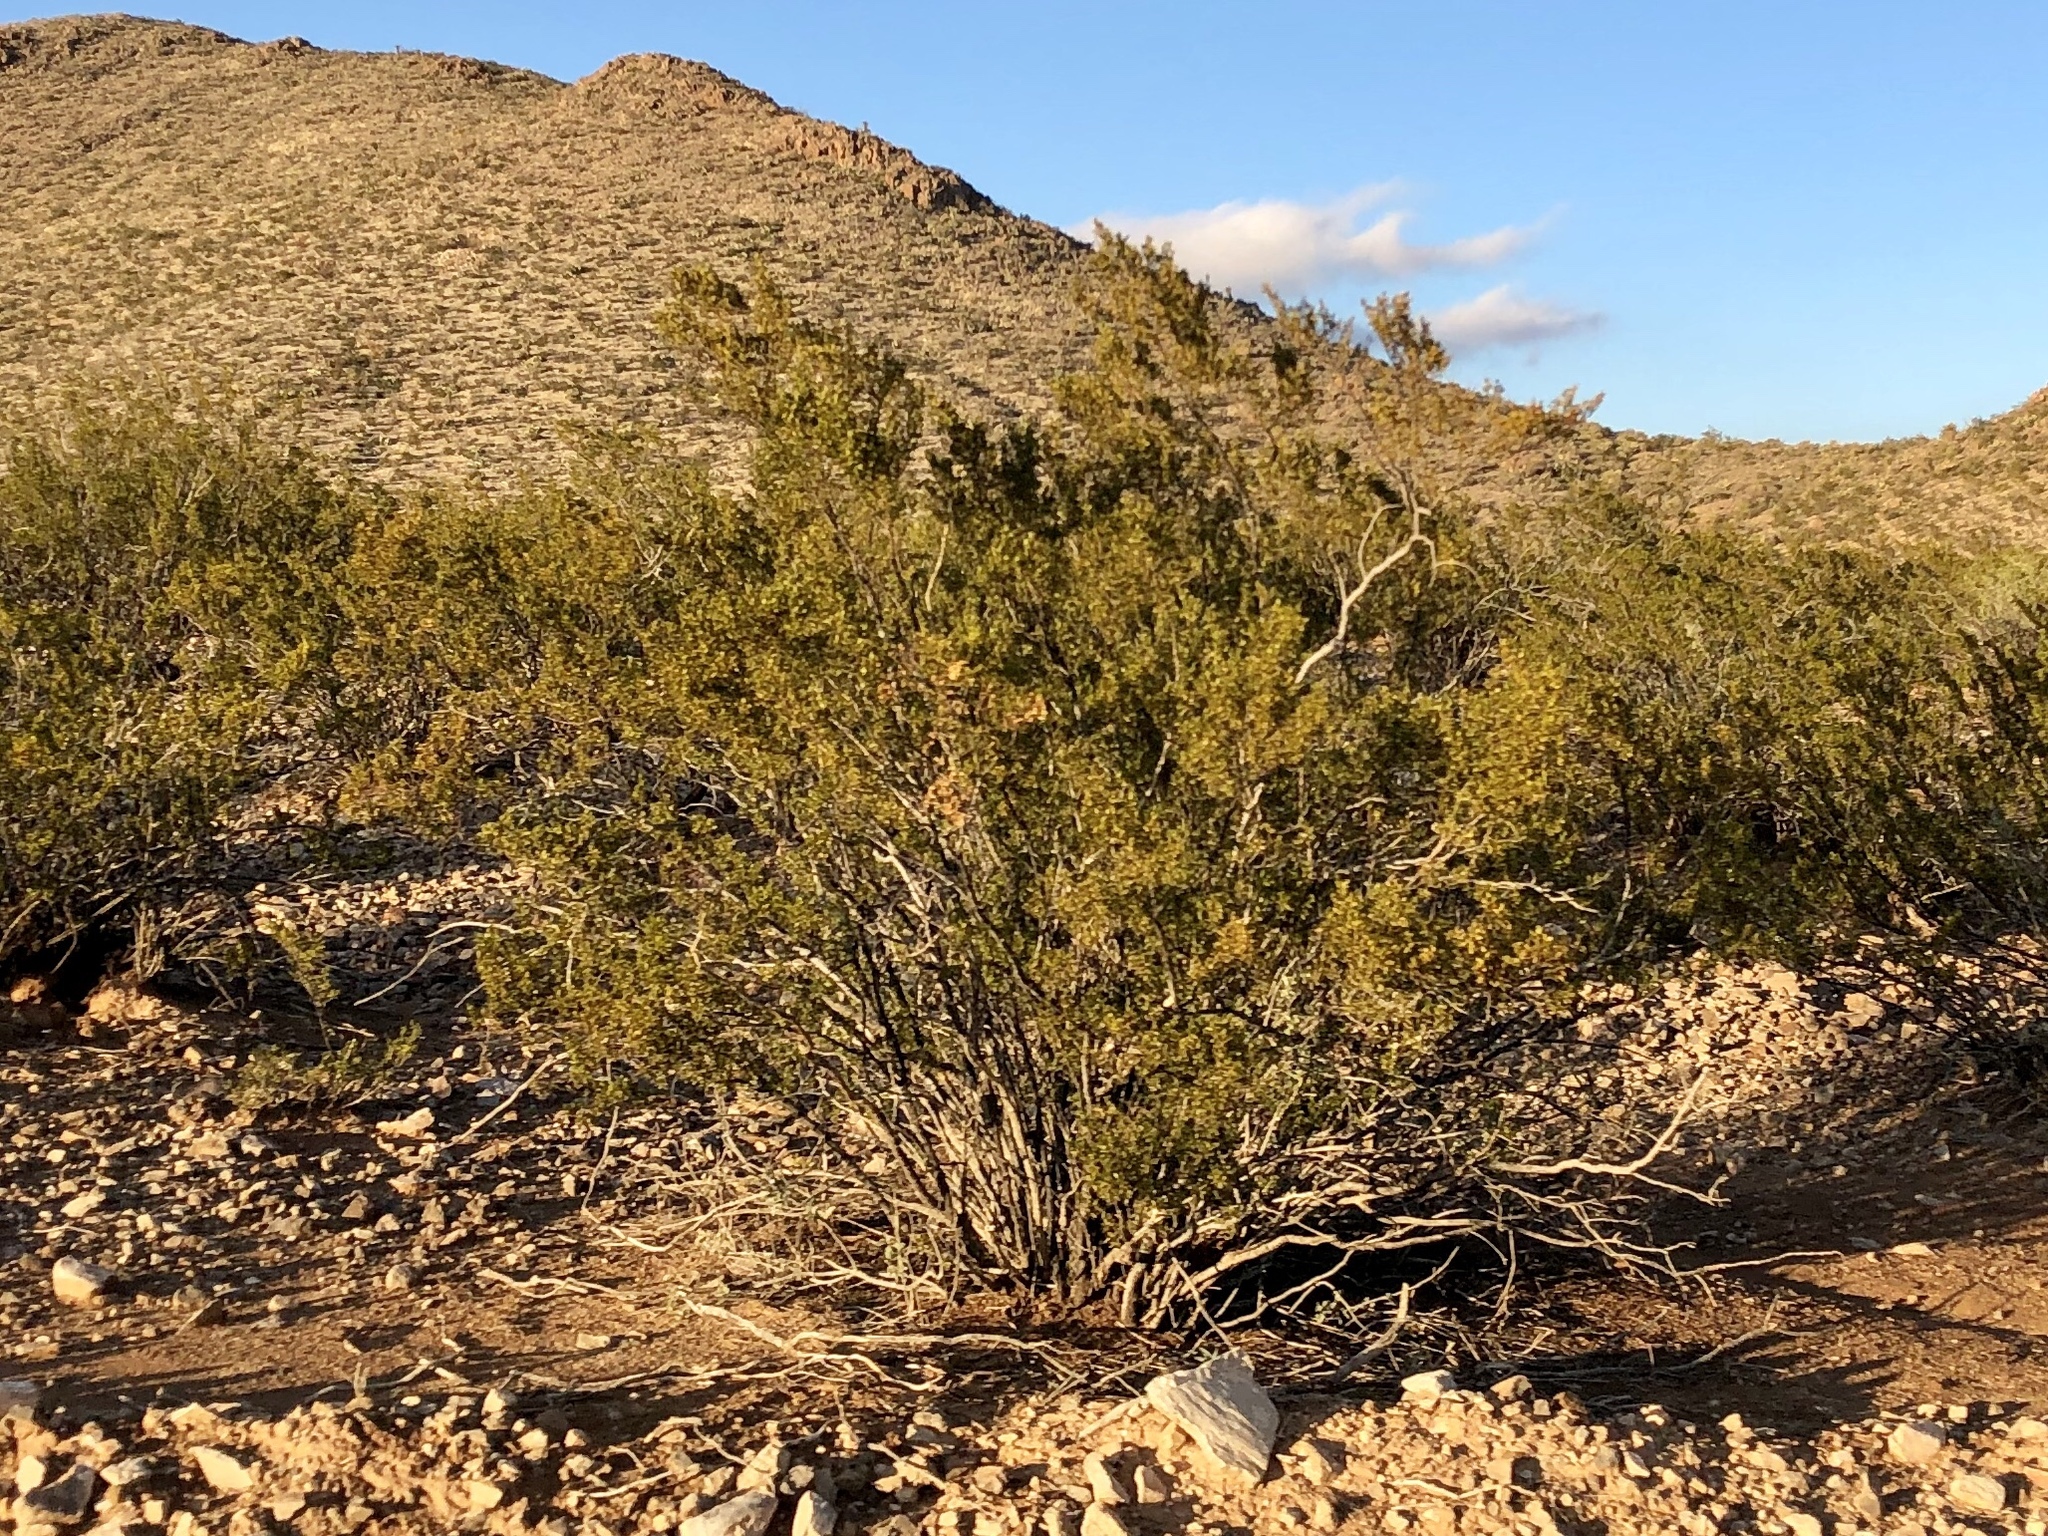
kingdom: Plantae
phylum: Tracheophyta
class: Magnoliopsida
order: Zygophyllales
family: Zygophyllaceae
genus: Larrea
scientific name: Larrea tridentata
